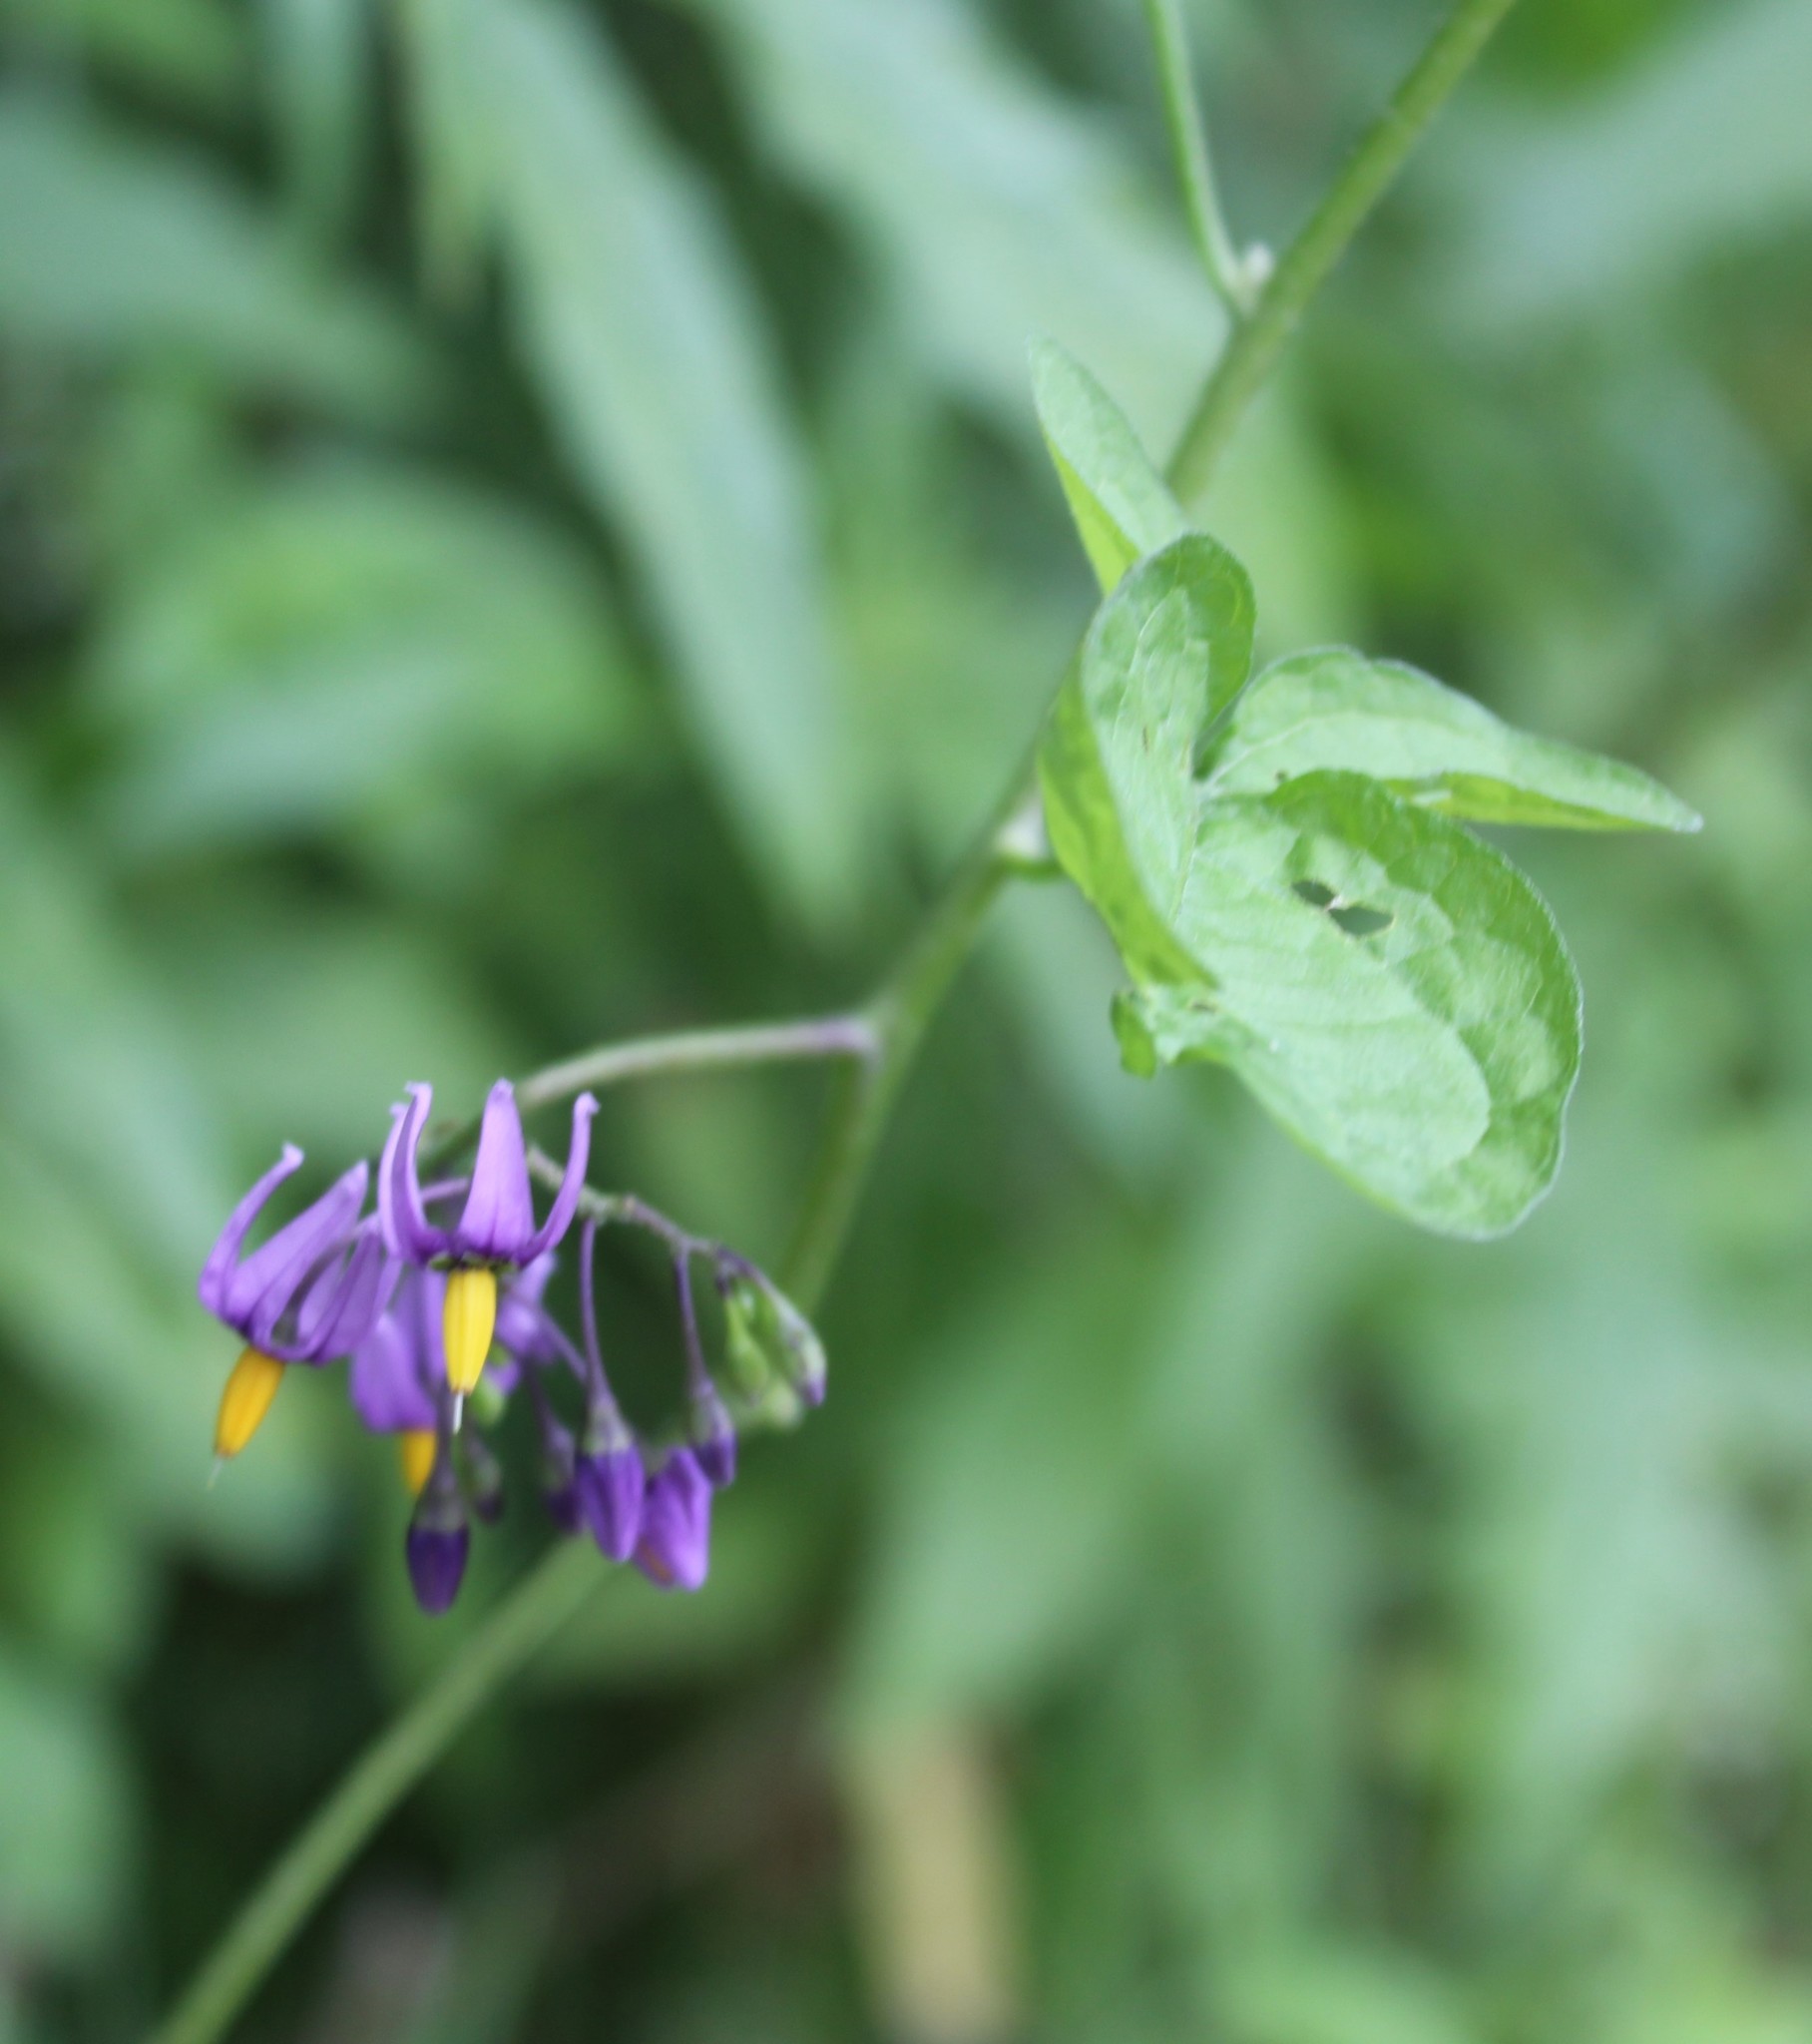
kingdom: Plantae
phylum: Tracheophyta
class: Magnoliopsida
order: Solanales
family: Solanaceae
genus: Solanum
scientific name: Solanum dulcamara
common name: Climbing nightshade
